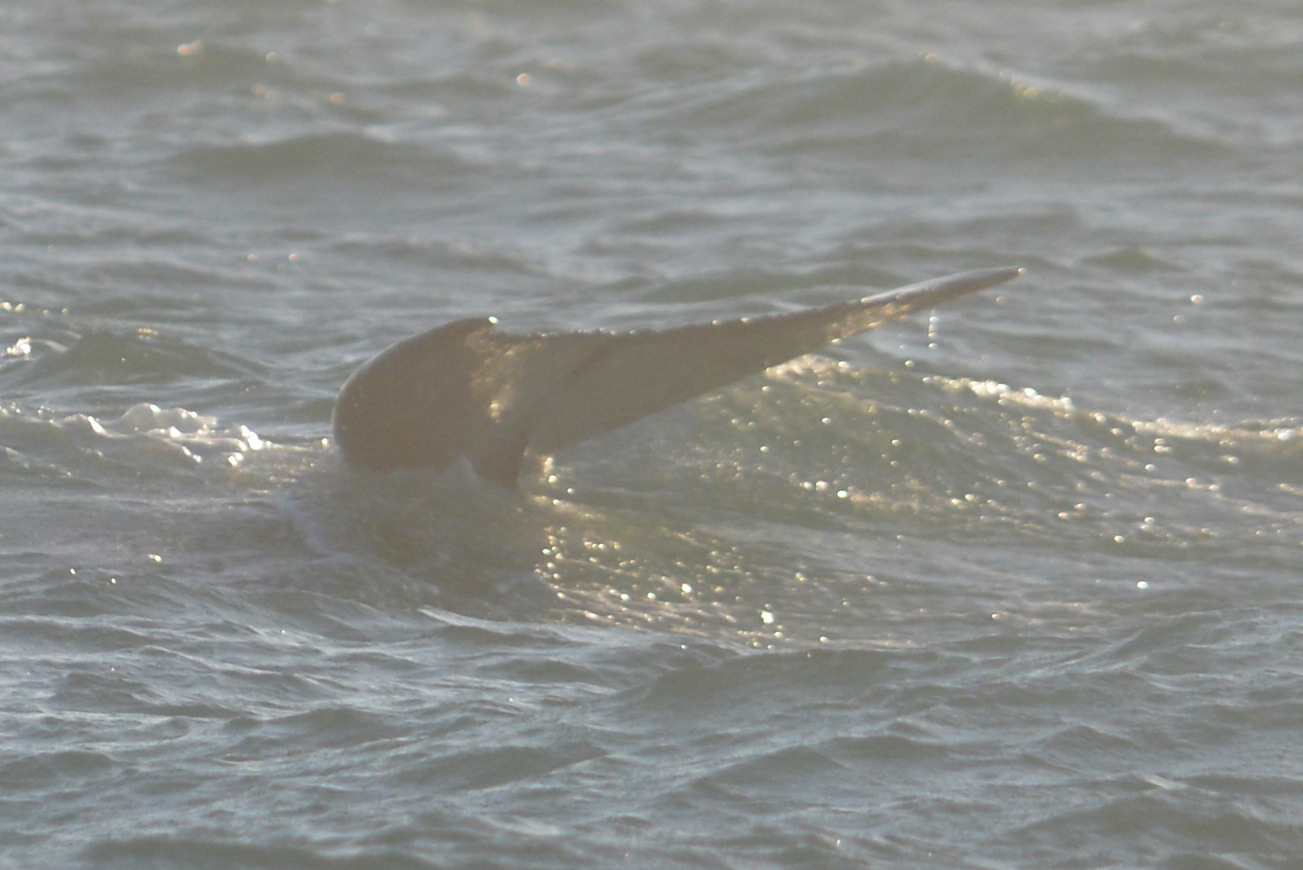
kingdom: Animalia
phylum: Chordata
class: Mammalia
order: Cetacea
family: Balaenopteridae
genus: Megaptera
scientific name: Megaptera novaeangliae
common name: Humpback whale
